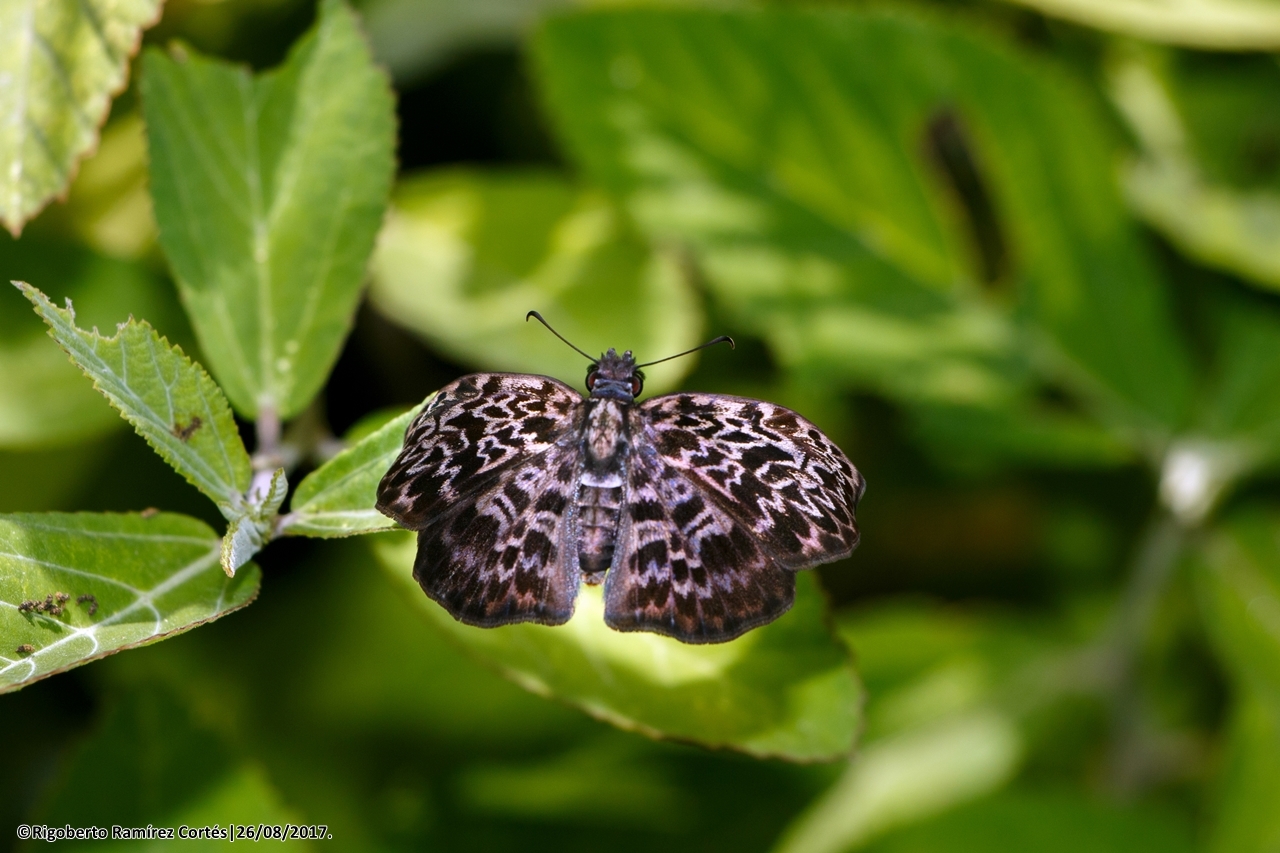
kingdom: Animalia
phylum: Arthropoda
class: Insecta
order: Lepidoptera
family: Hesperiidae
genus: Cycloglypha
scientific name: Cycloglypha thrasibulus
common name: Widespread bent-skipper
